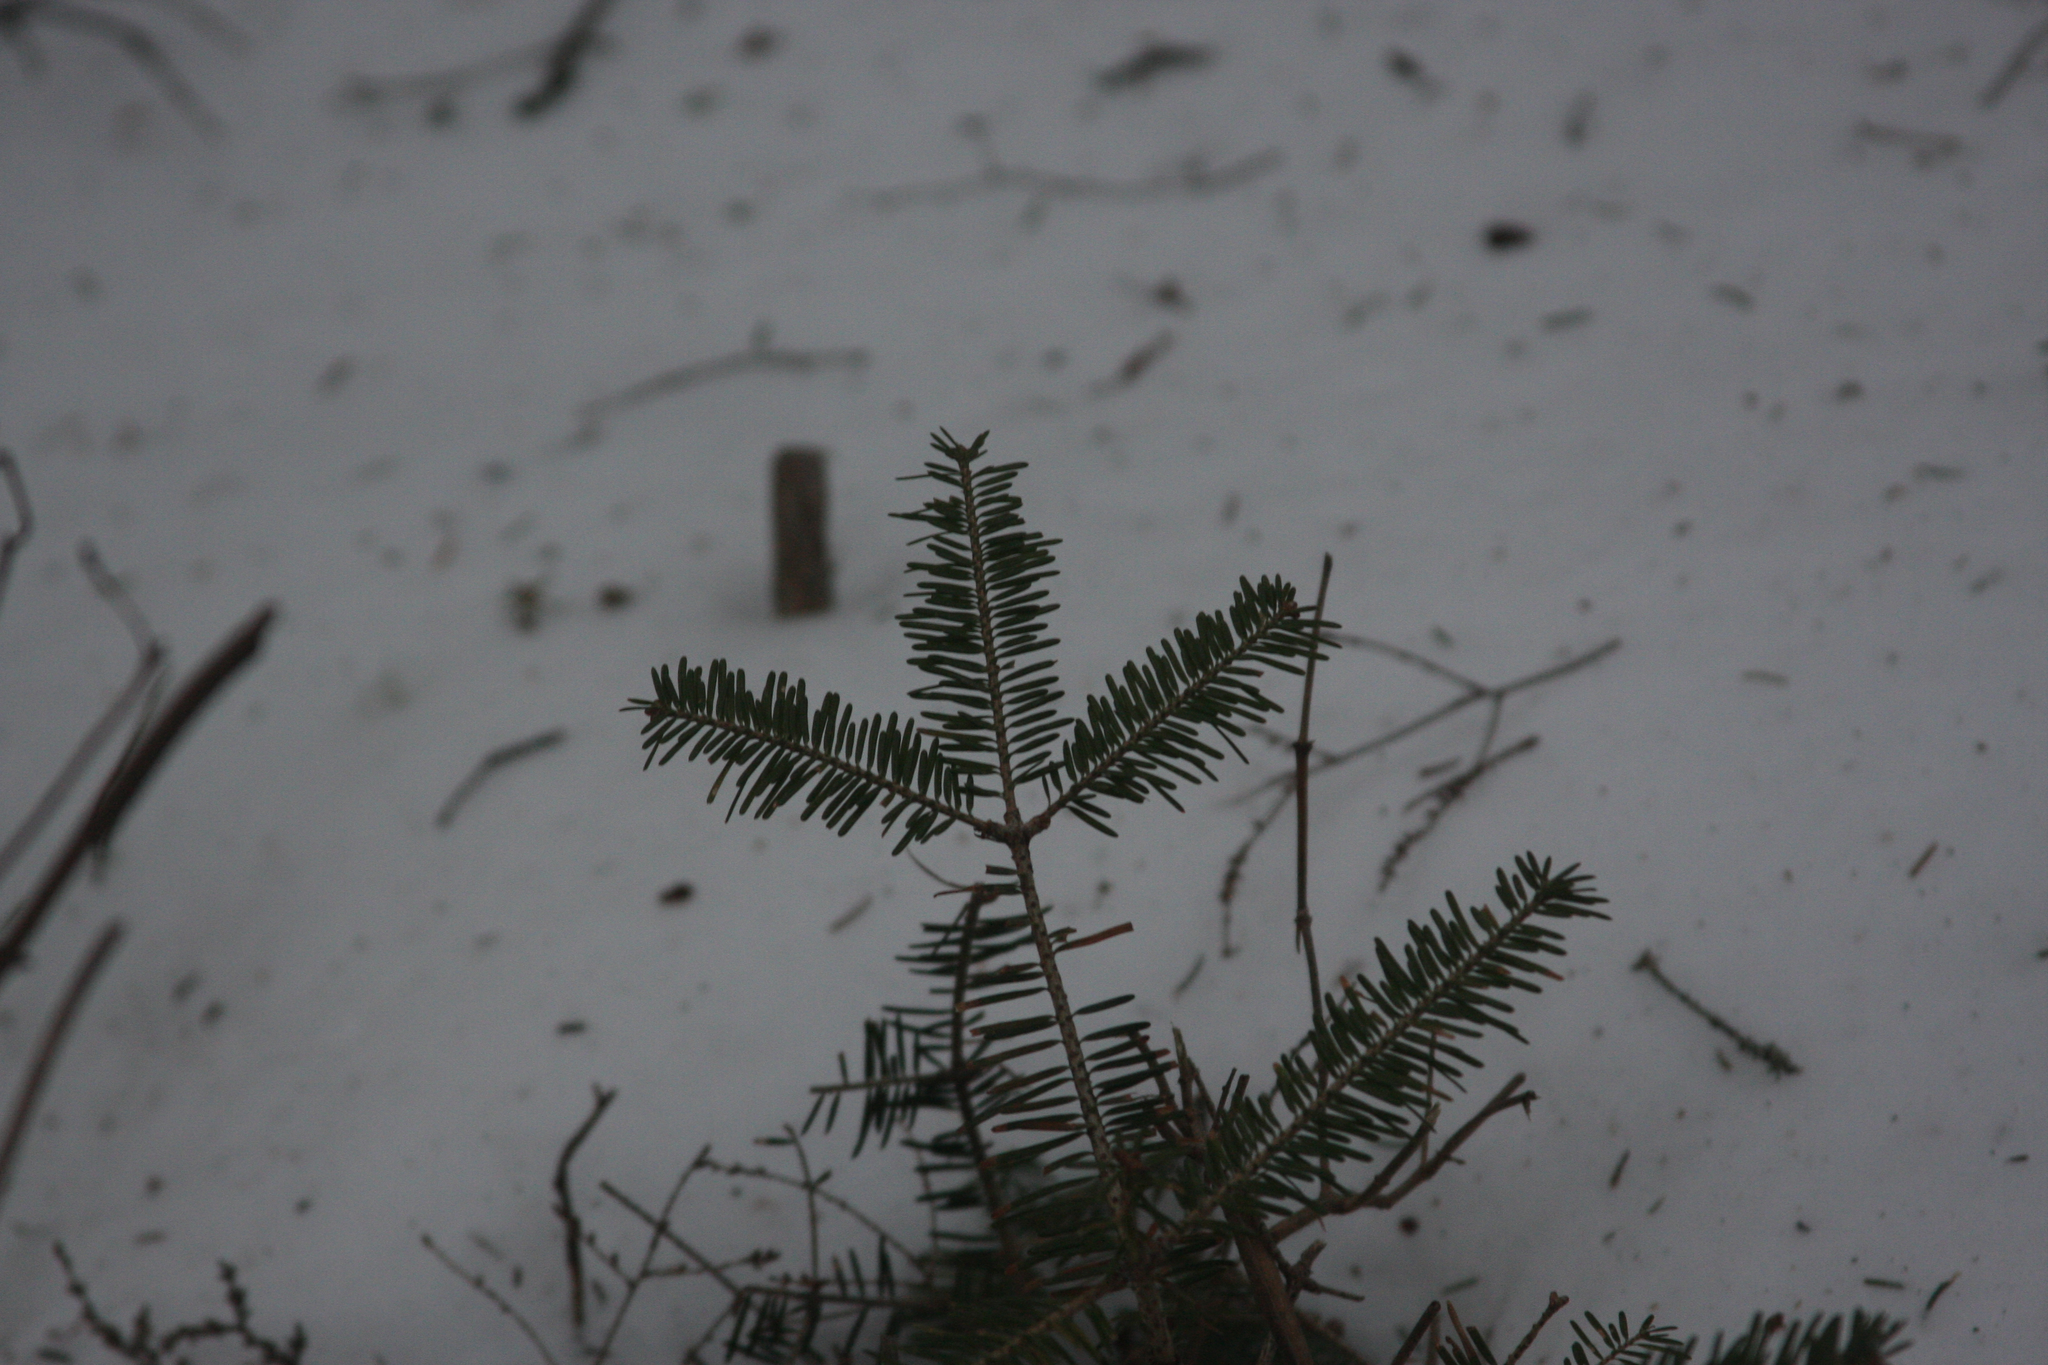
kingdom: Plantae
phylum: Tracheophyta
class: Pinopsida
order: Pinales
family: Pinaceae
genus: Abies
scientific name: Abies balsamea
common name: Balsam fir
